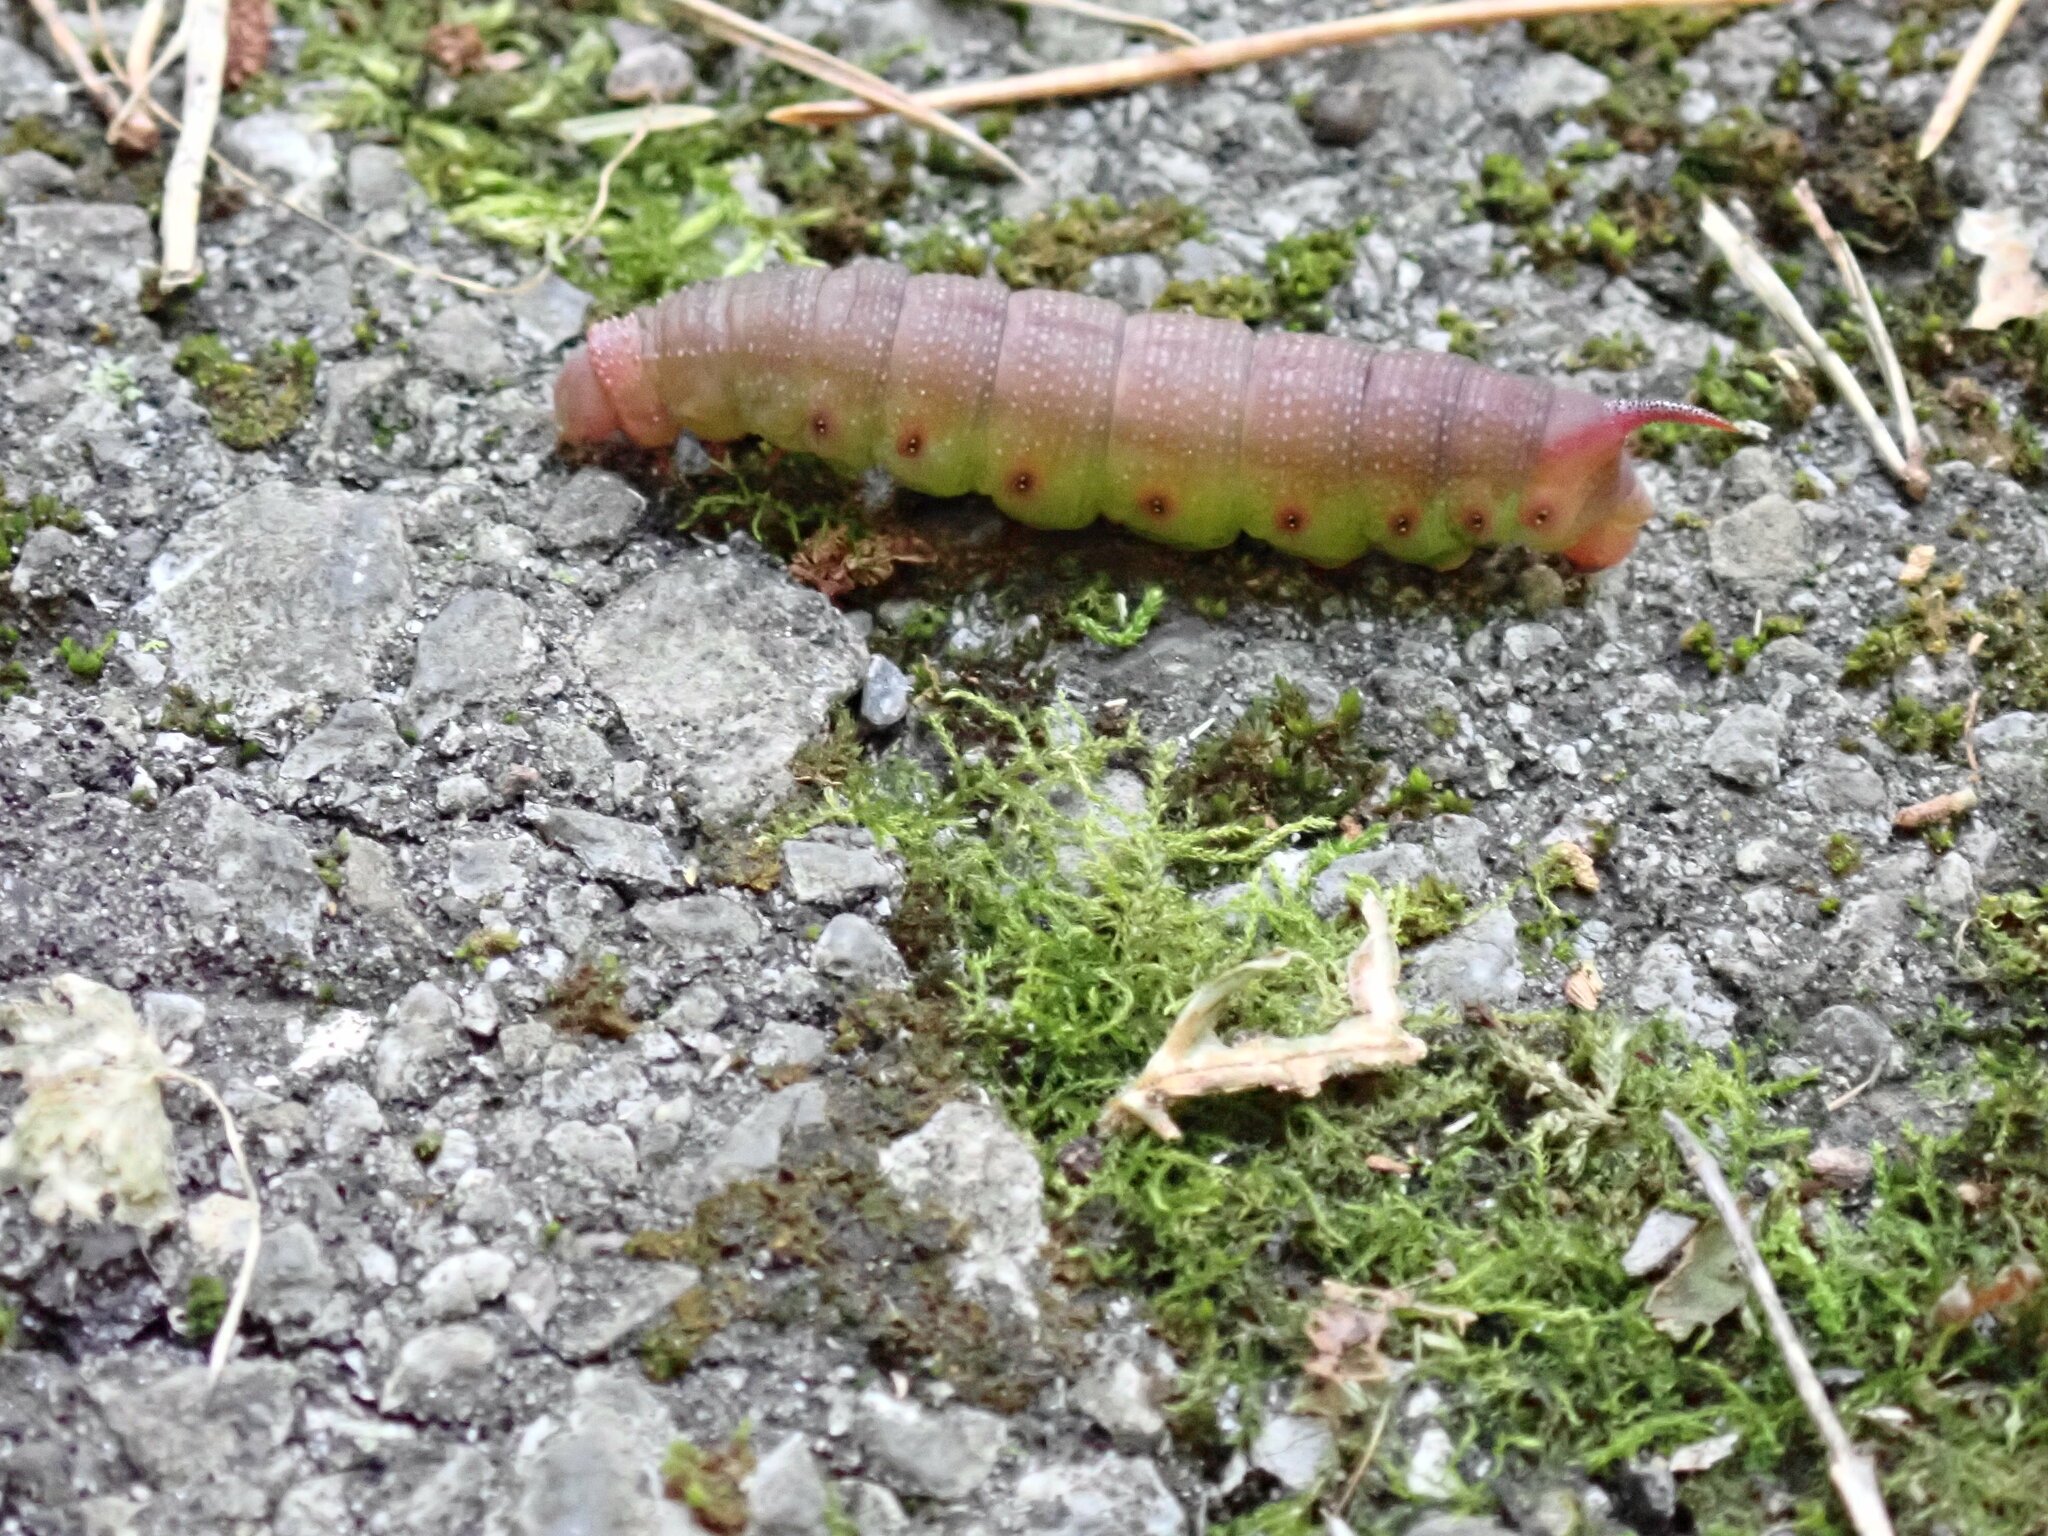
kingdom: Animalia
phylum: Arthropoda
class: Insecta
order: Lepidoptera
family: Sphingidae
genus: Hemaris
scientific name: Hemaris thysbe
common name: Common clear-wing
